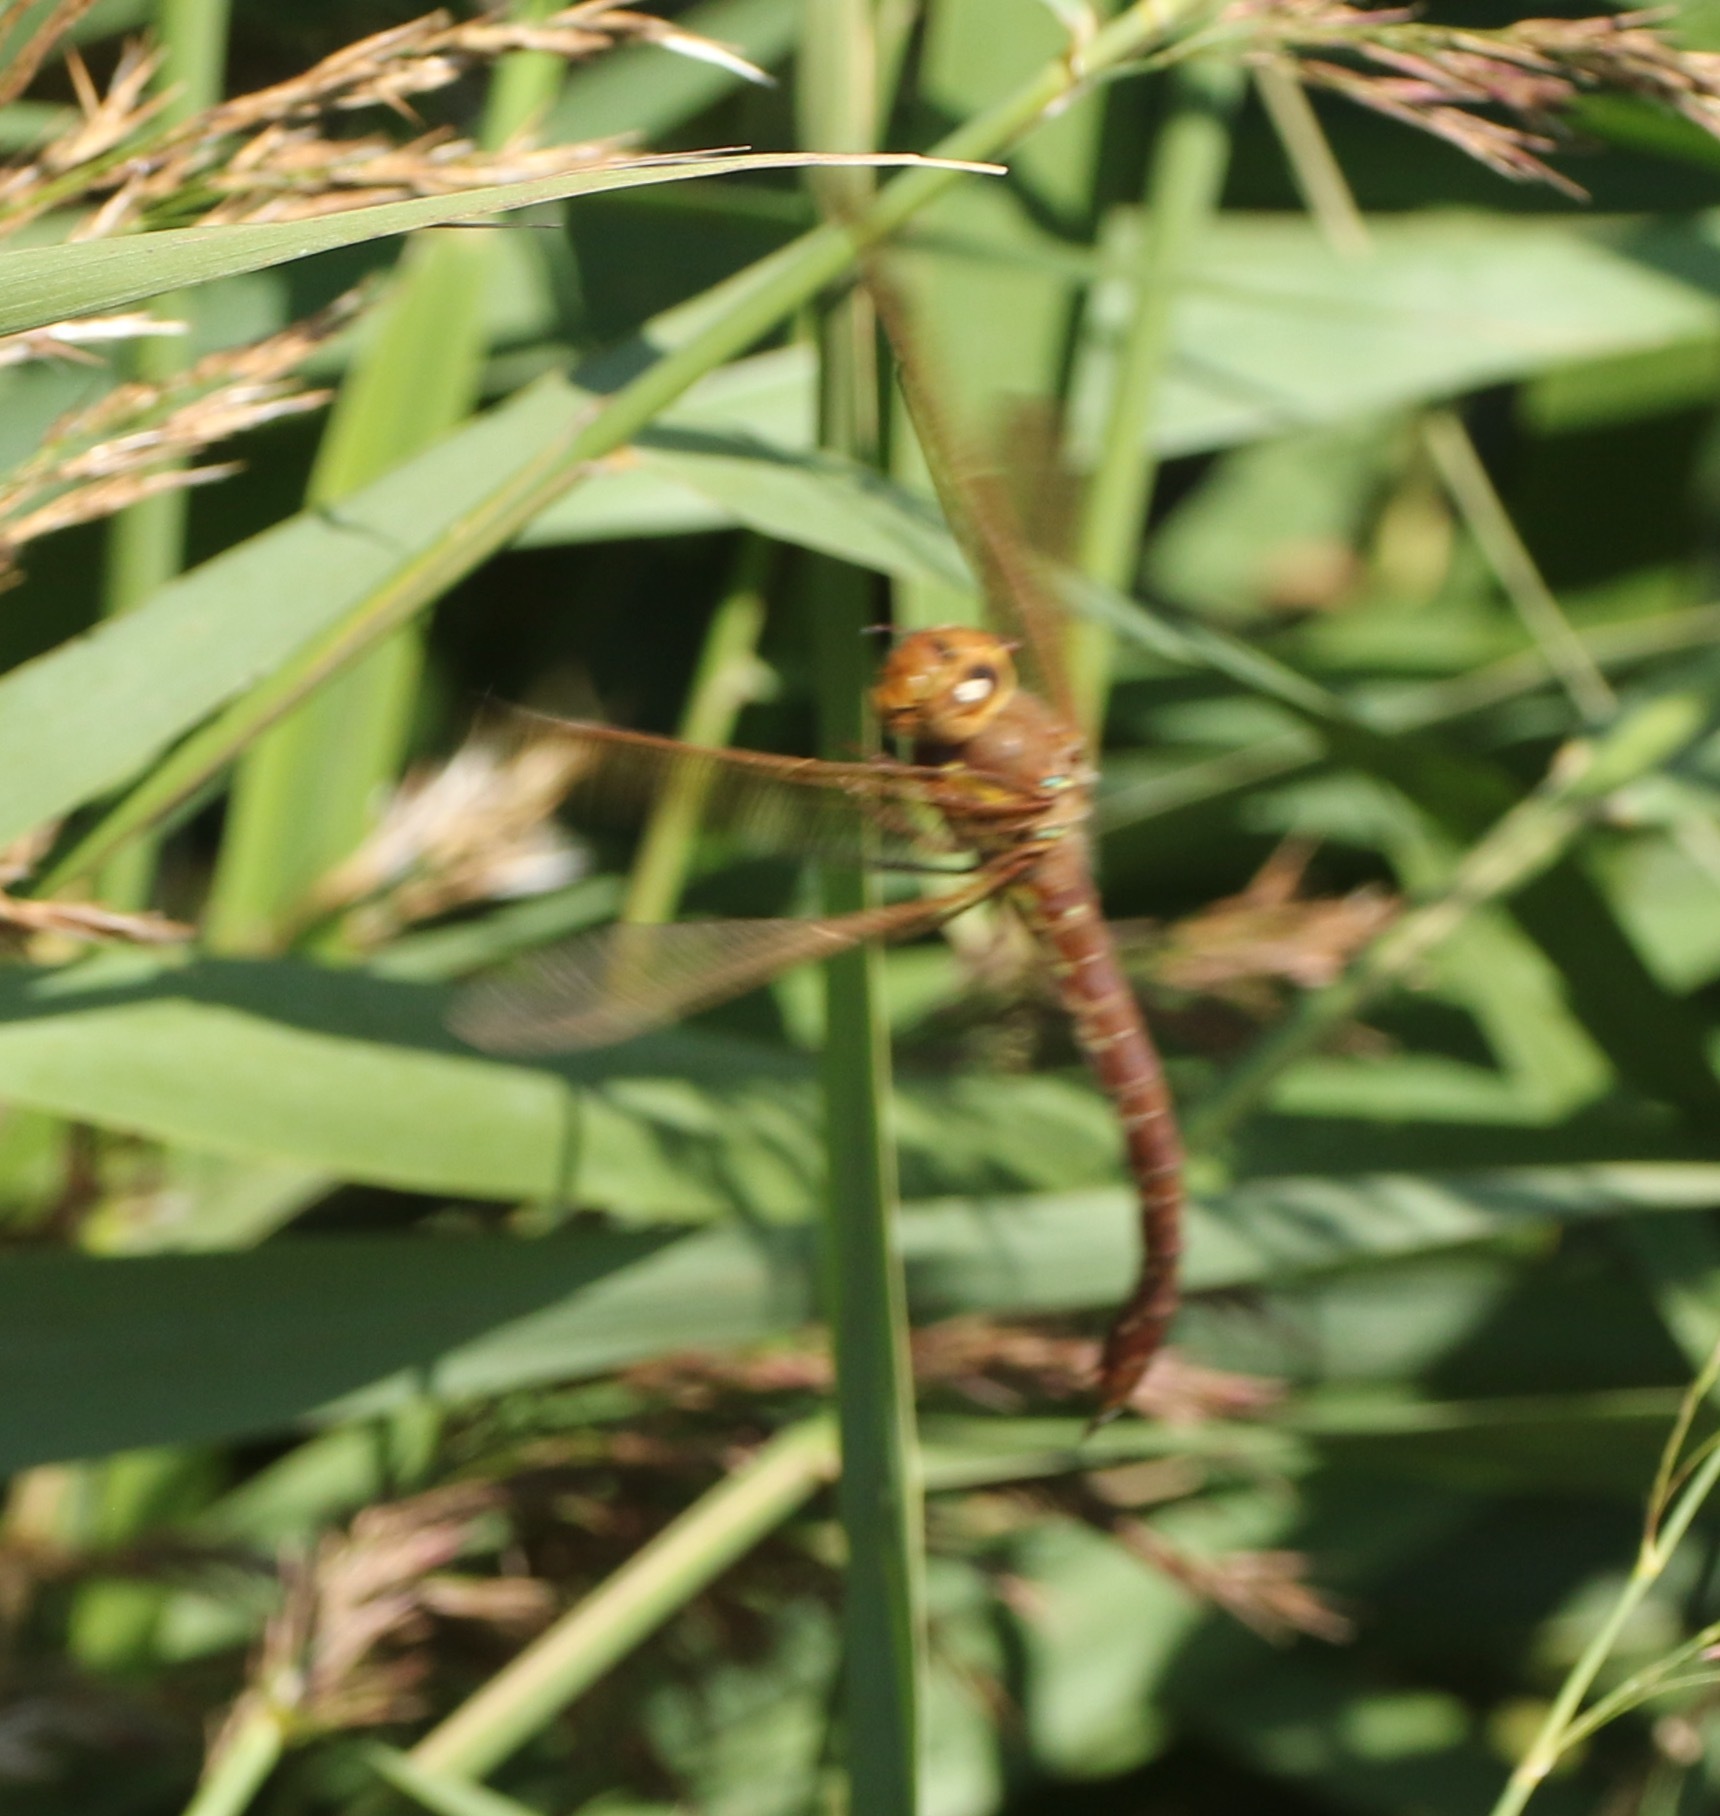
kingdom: Animalia
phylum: Arthropoda
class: Insecta
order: Odonata
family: Aeshnidae
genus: Aeshna
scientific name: Aeshna grandis
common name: Brown hawker
